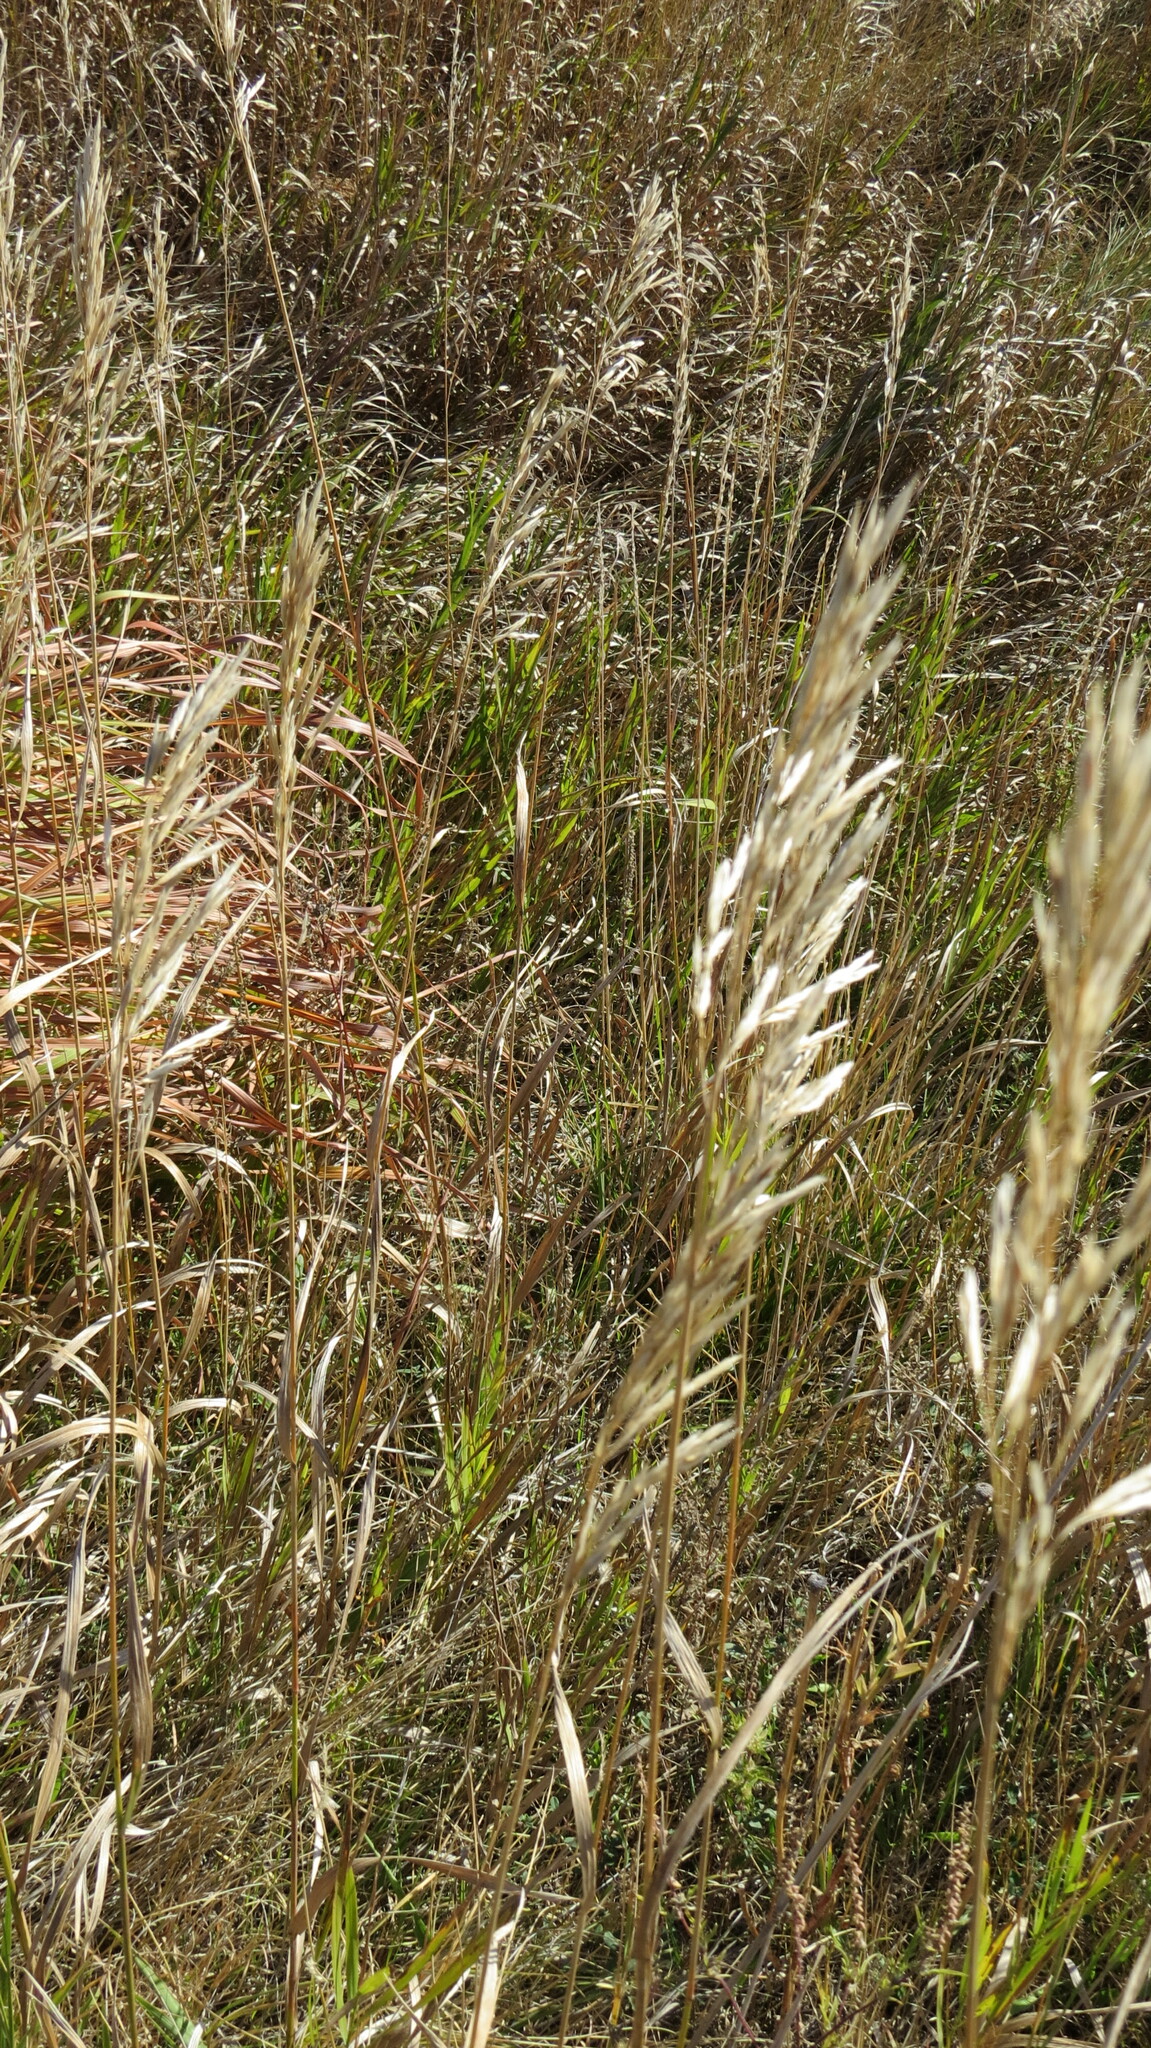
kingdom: Plantae
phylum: Tracheophyta
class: Liliopsida
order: Poales
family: Poaceae
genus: Bromus
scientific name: Bromus inermis
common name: Smooth brome
